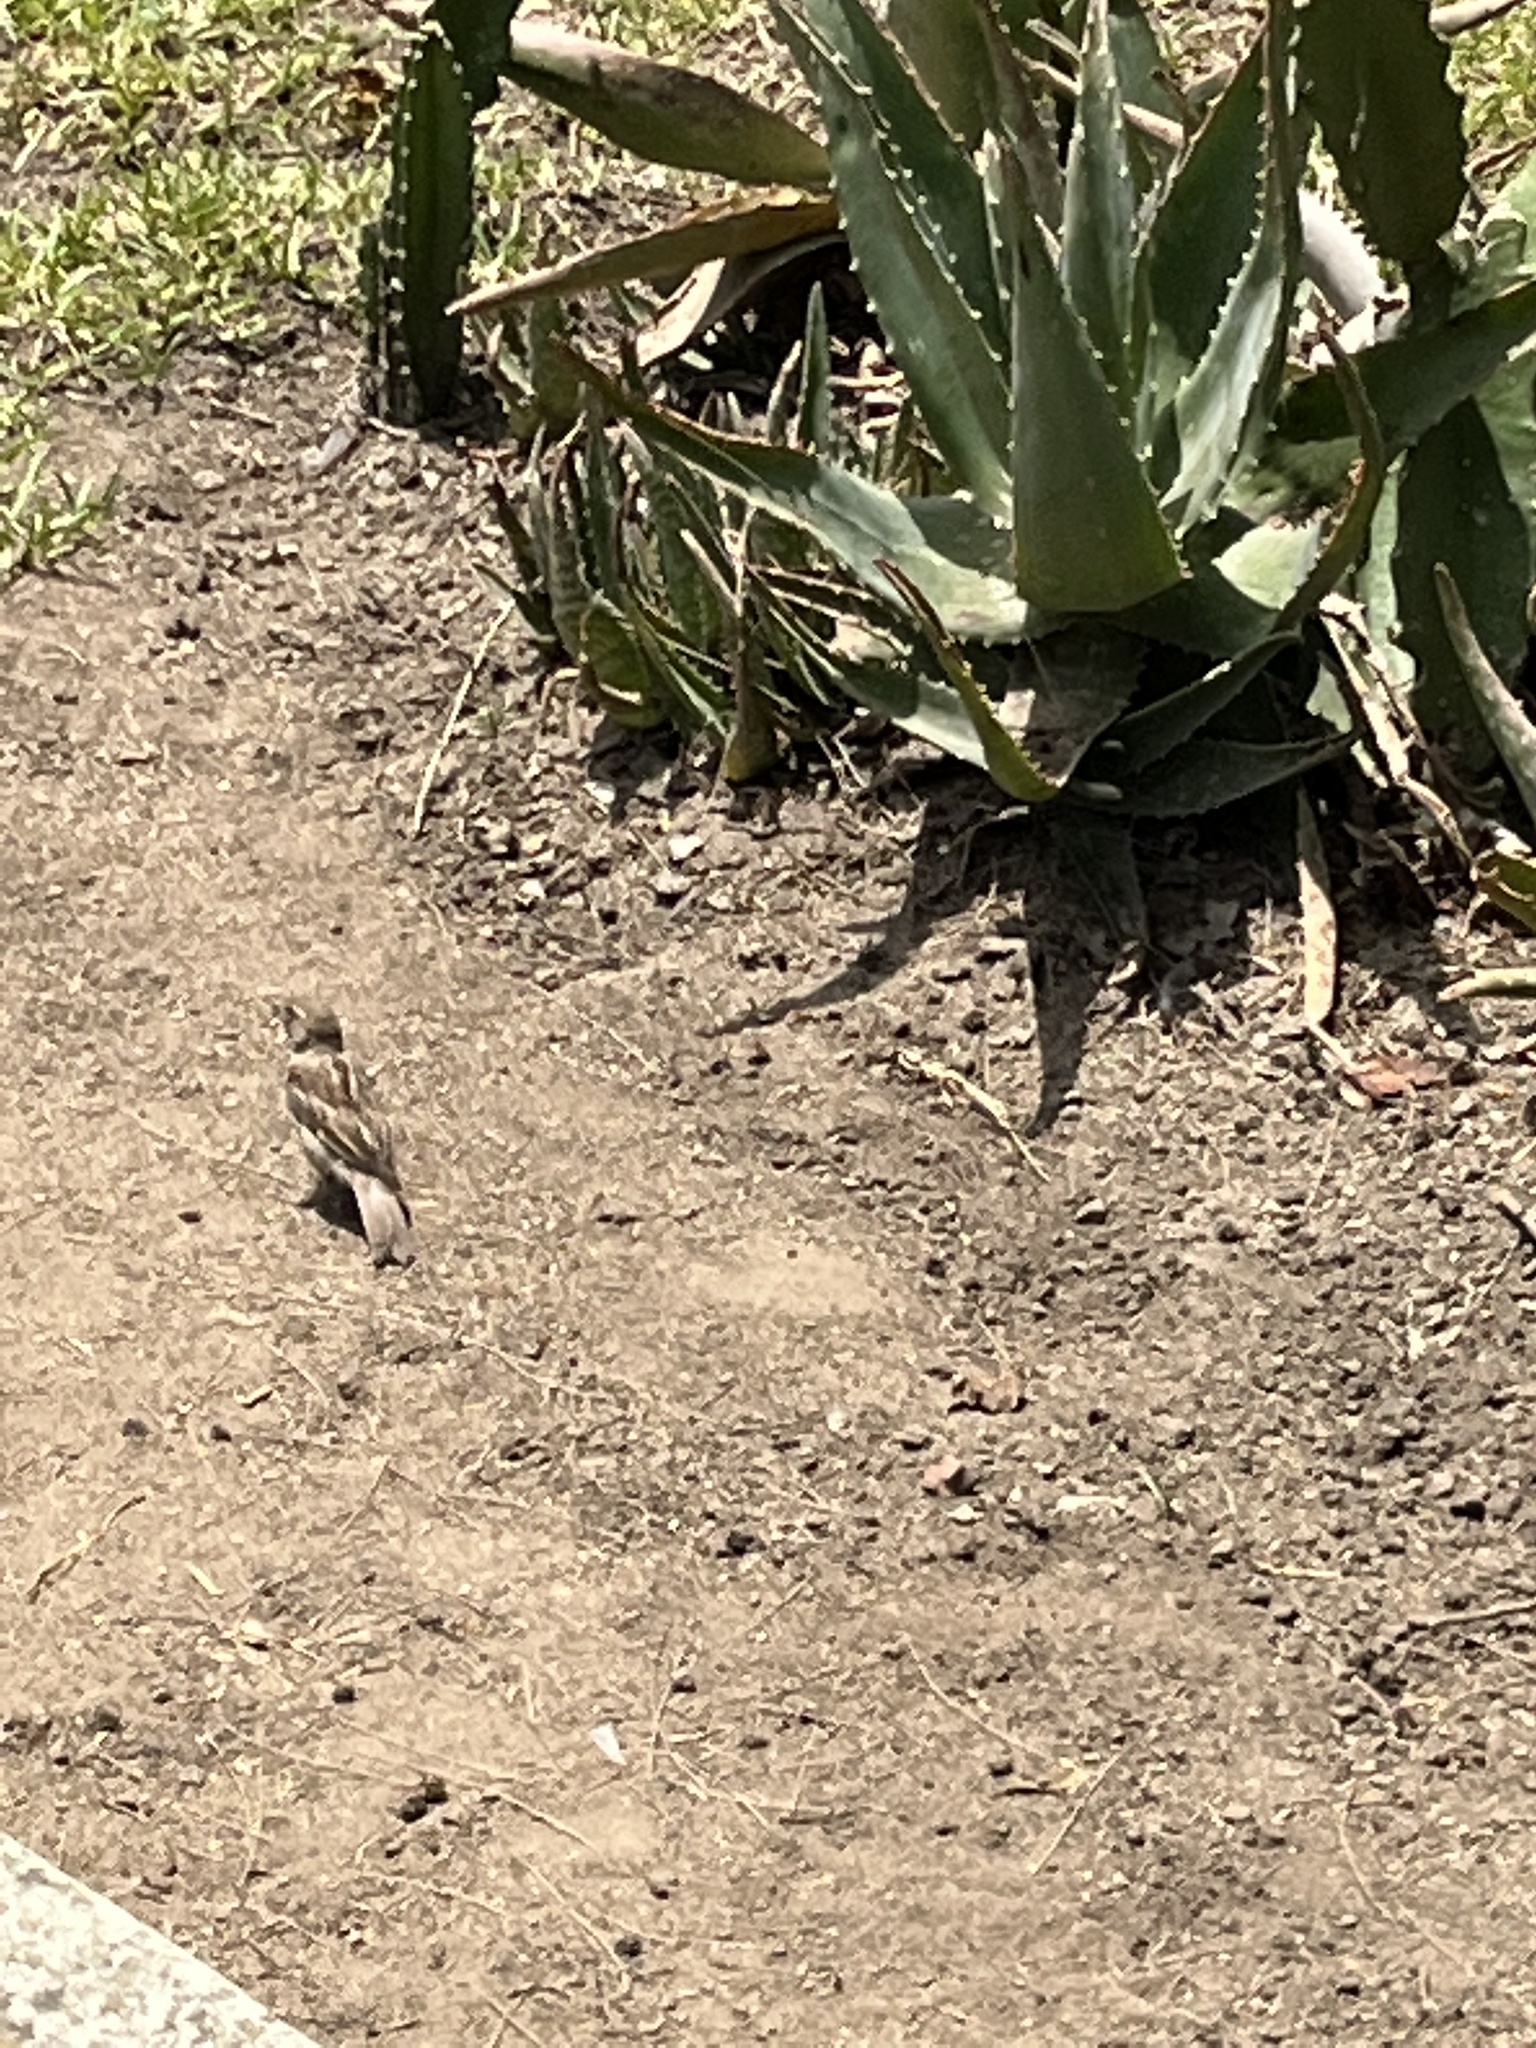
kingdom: Animalia
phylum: Chordata
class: Aves
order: Passeriformes
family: Passeridae
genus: Passer
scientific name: Passer domesticus
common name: House sparrow
